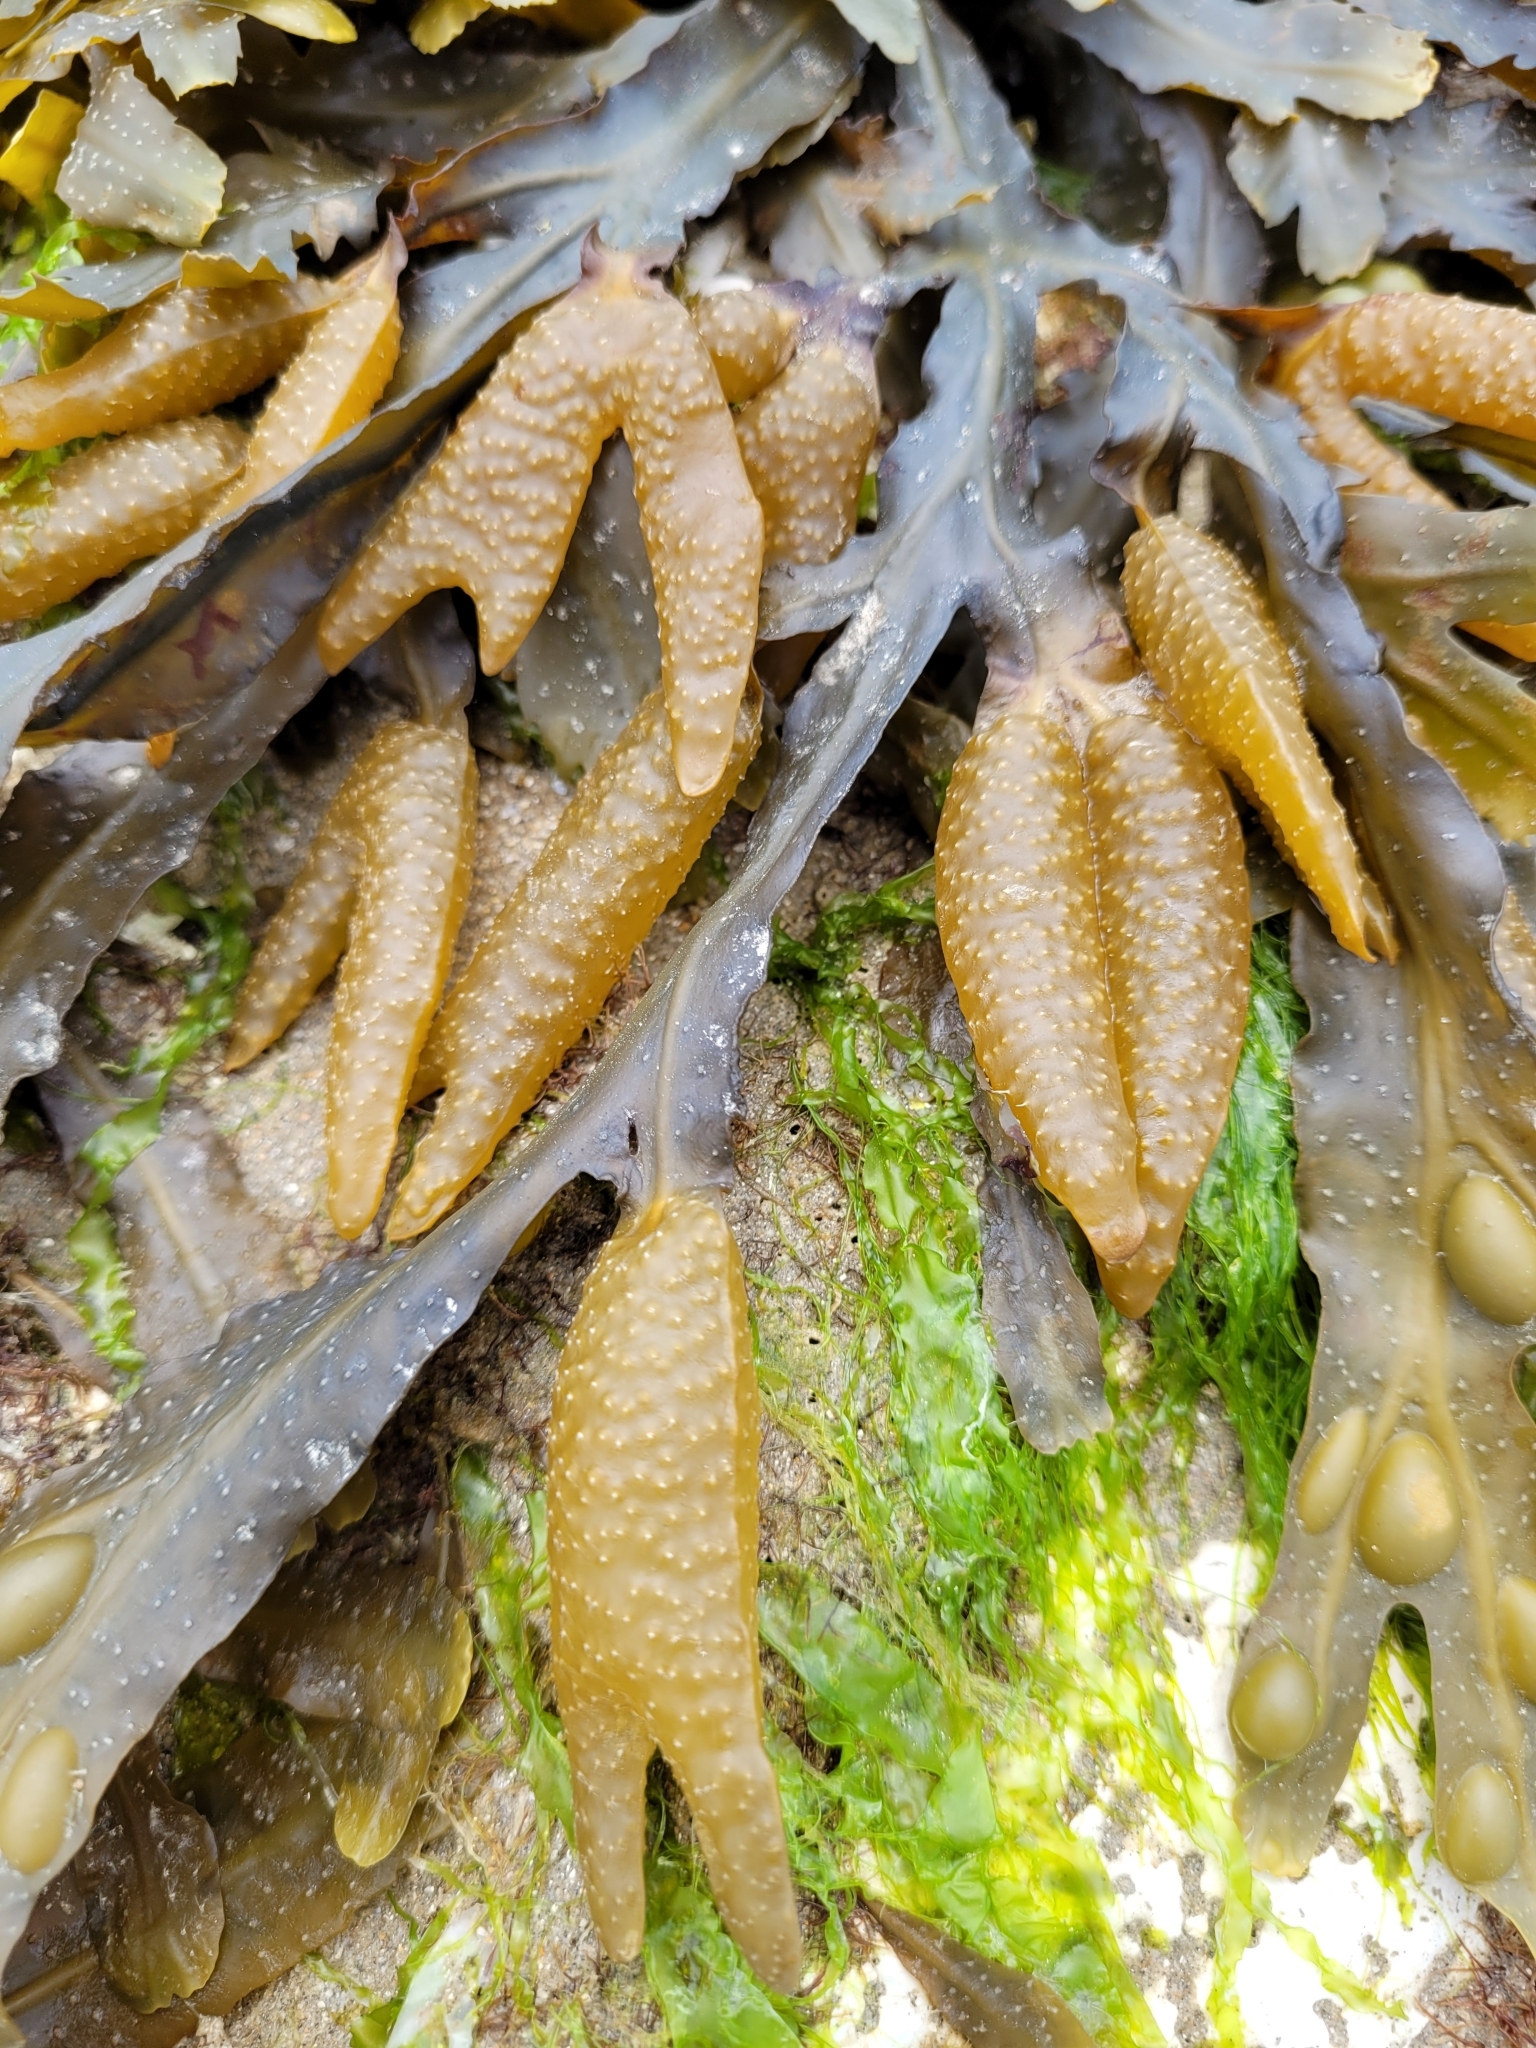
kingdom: Chromista
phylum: Ochrophyta
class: Phaeophyceae
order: Fucales
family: Fucaceae
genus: Fucus
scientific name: Fucus vesiculosus
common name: Bladder wrack
